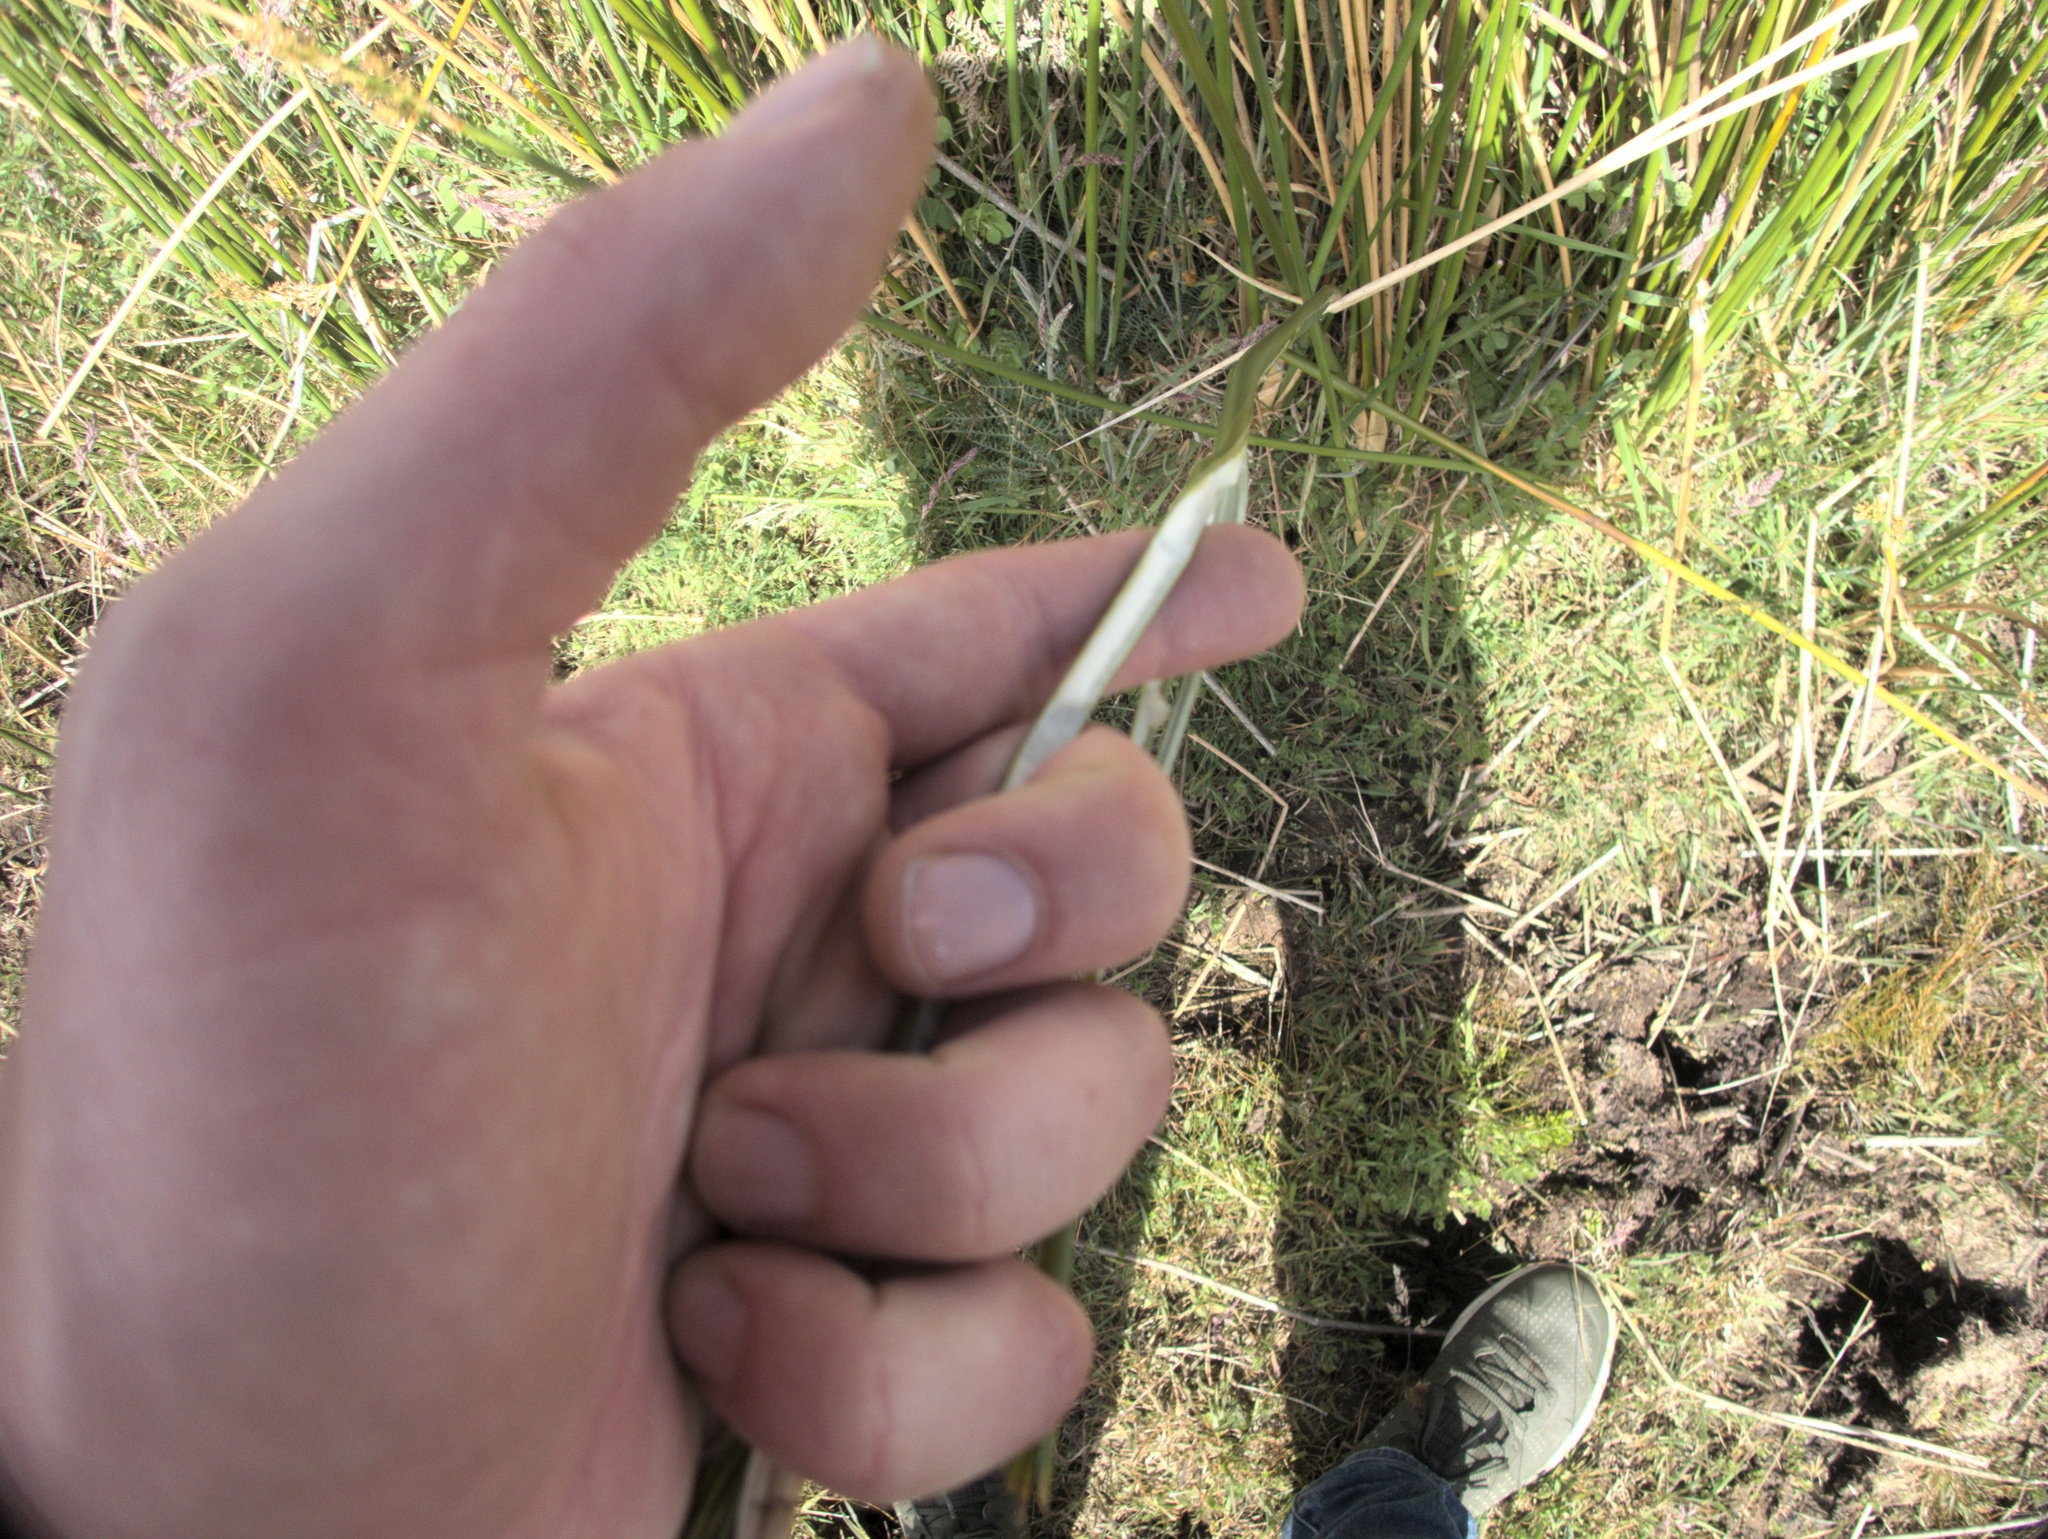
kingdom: Plantae
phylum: Tracheophyta
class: Liliopsida
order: Poales
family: Juncaceae
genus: Juncus
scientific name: Juncus pallidus
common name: Great soft-rush
